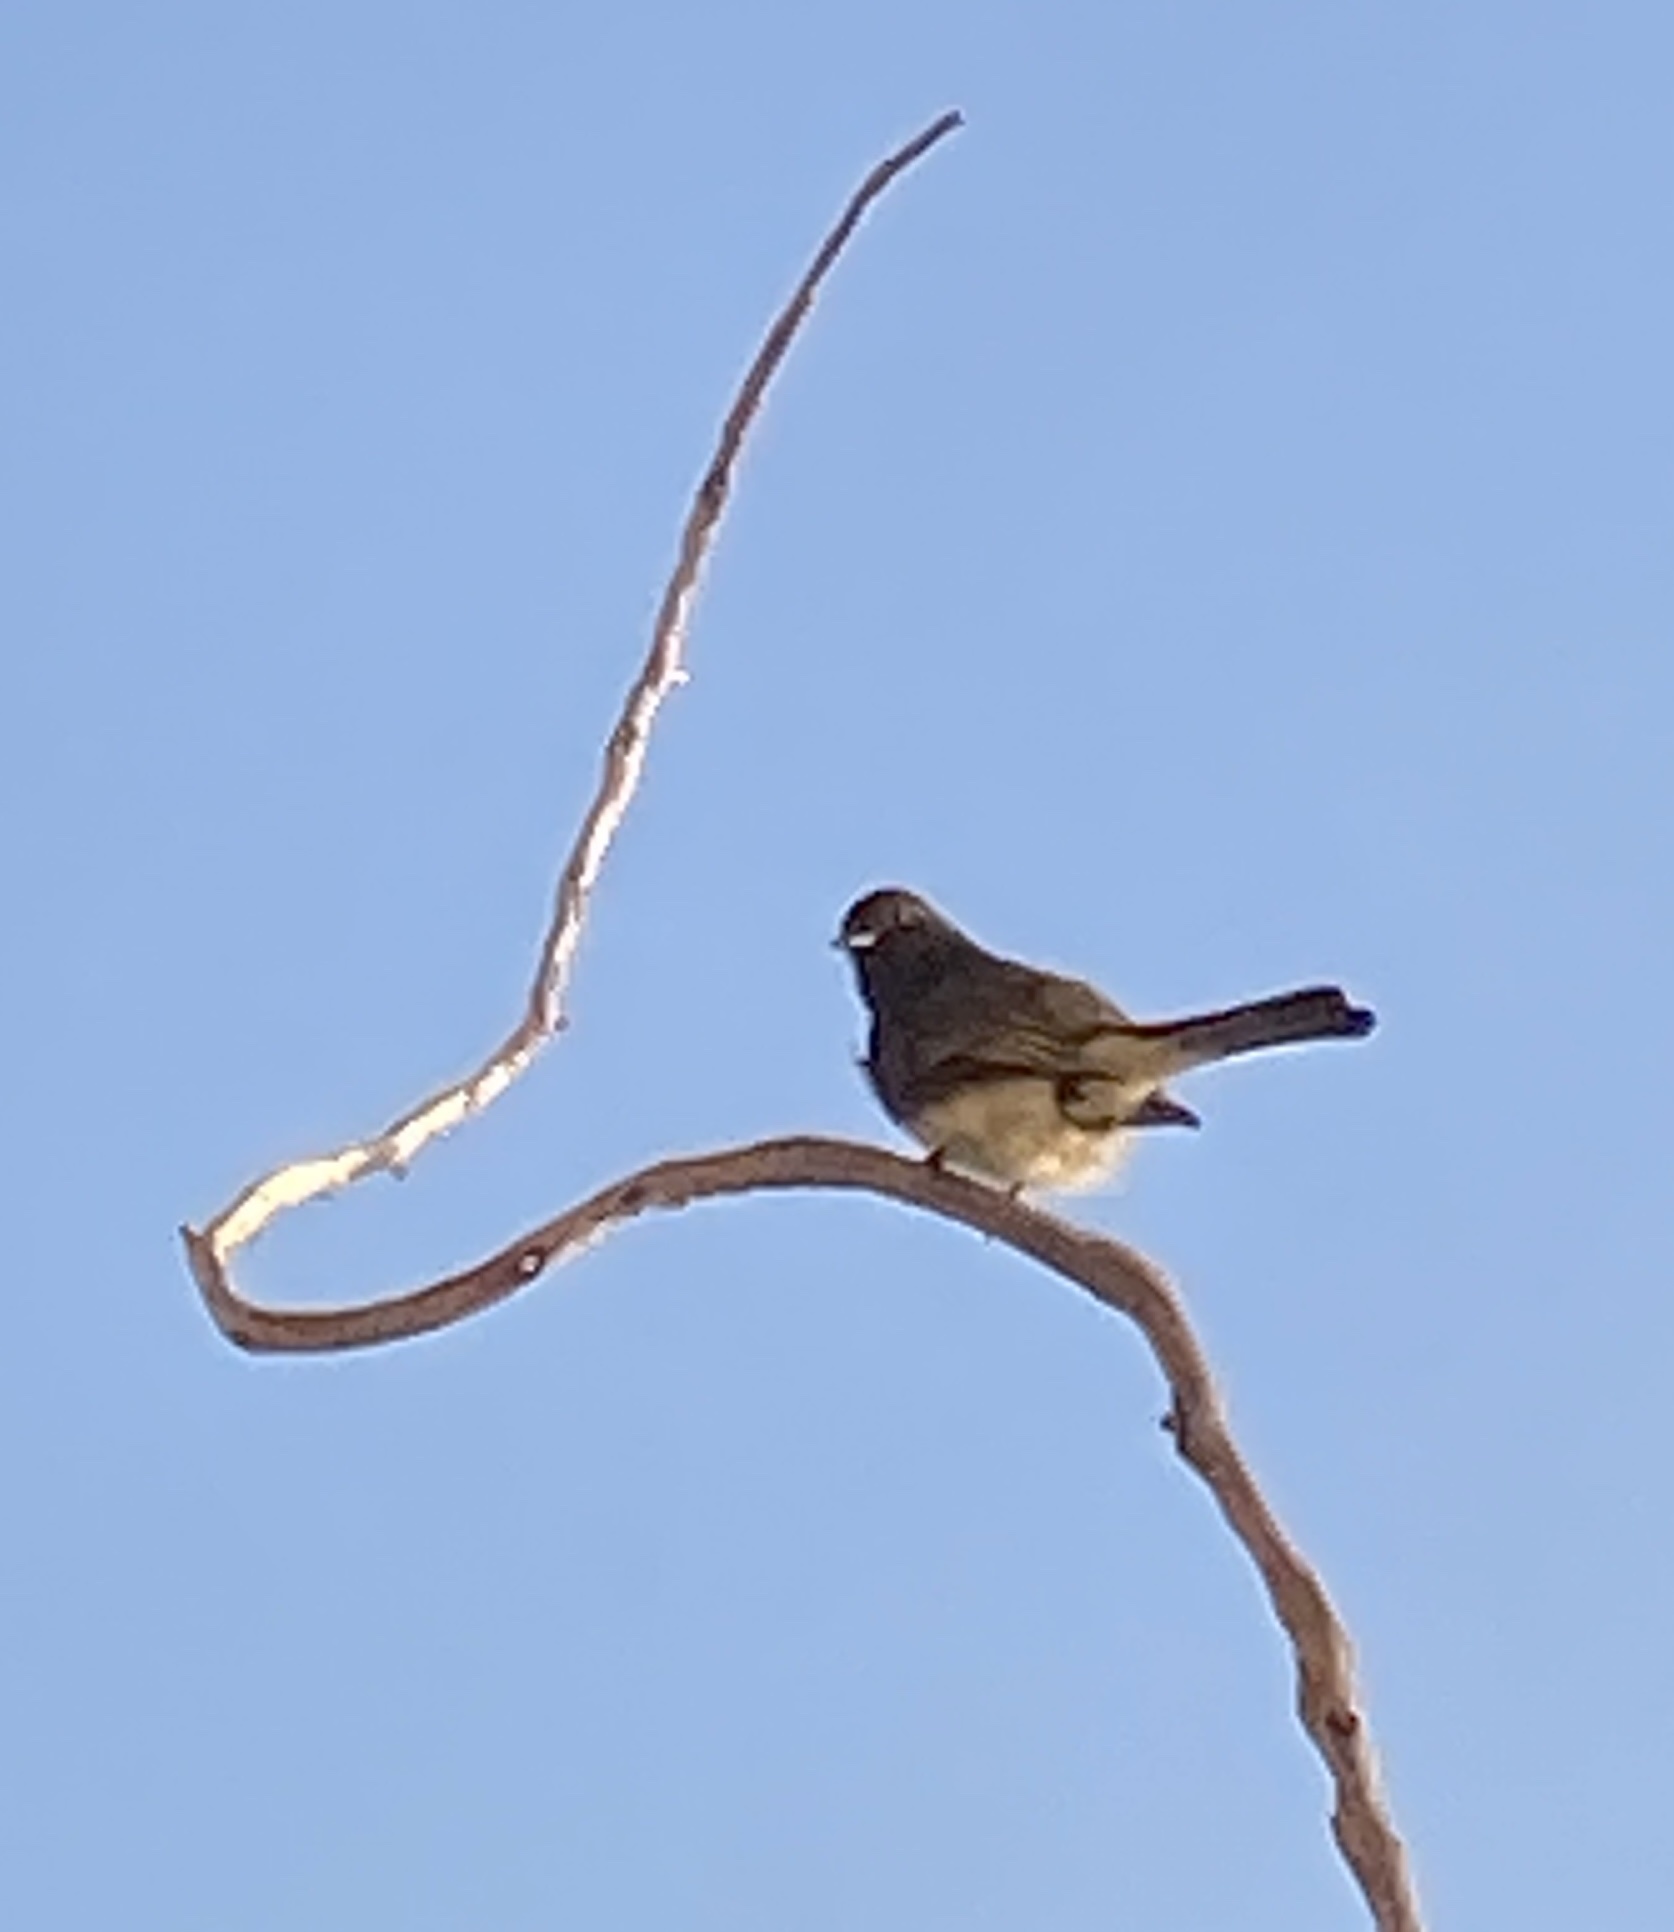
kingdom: Animalia
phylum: Chordata
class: Aves
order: Passeriformes
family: Tyrannidae
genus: Sayornis
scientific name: Sayornis nigricans
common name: Black phoebe
